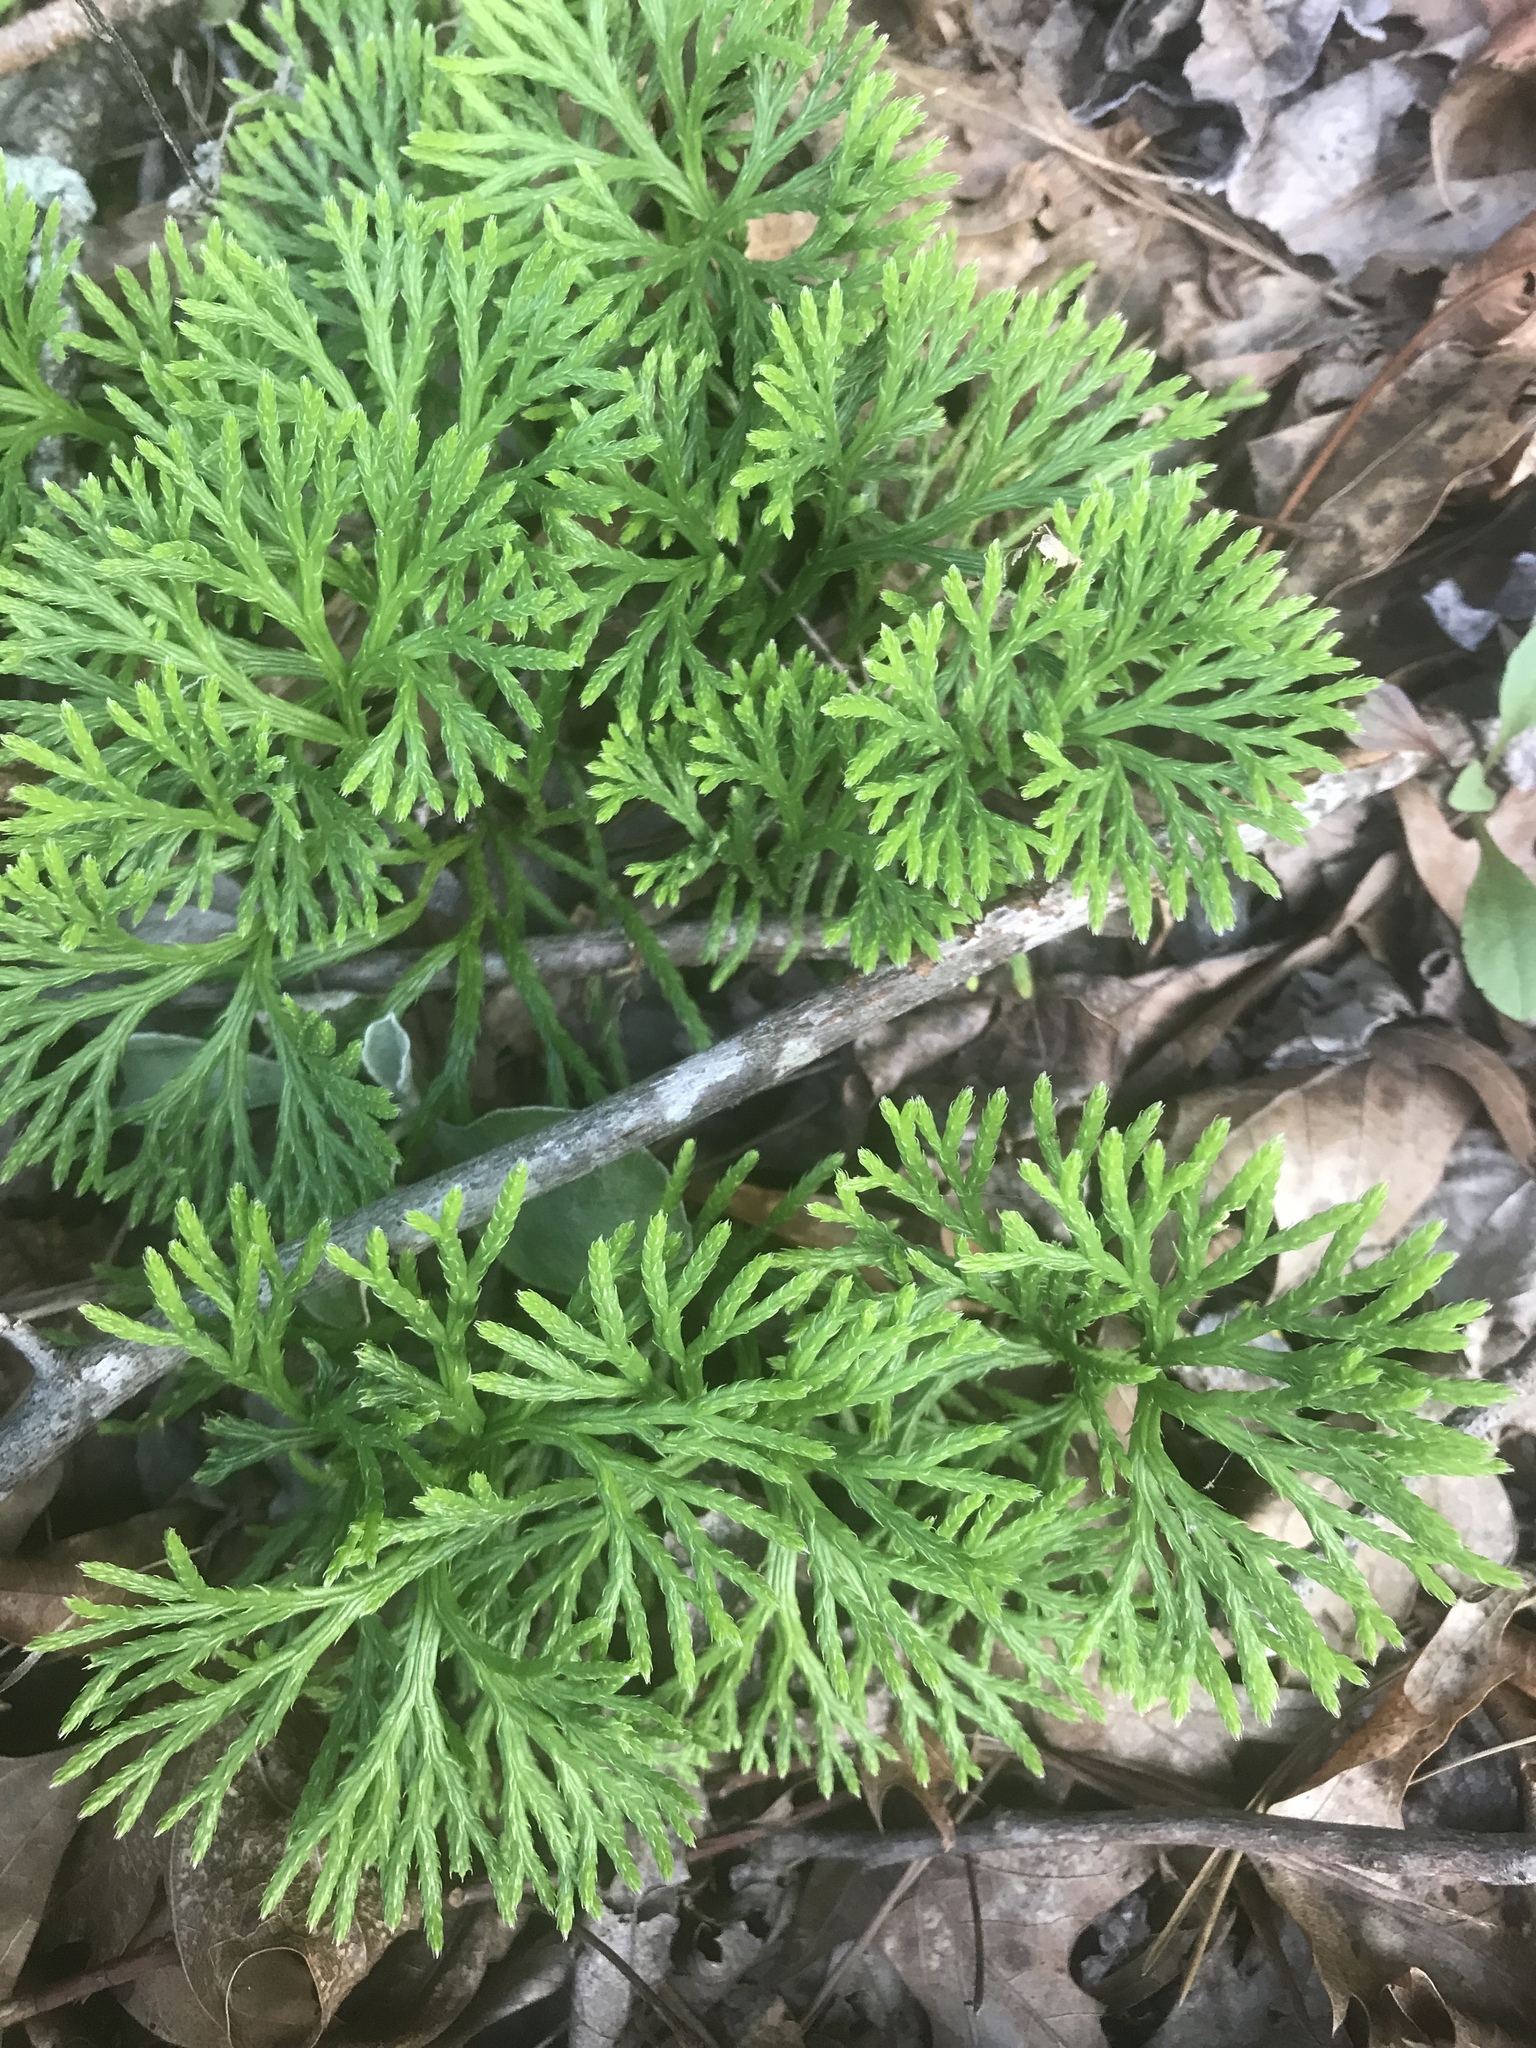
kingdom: Plantae
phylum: Tracheophyta
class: Lycopodiopsida
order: Lycopodiales
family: Lycopodiaceae
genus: Diphasiastrum
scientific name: Diphasiastrum digitatum
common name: Southern running-pine
